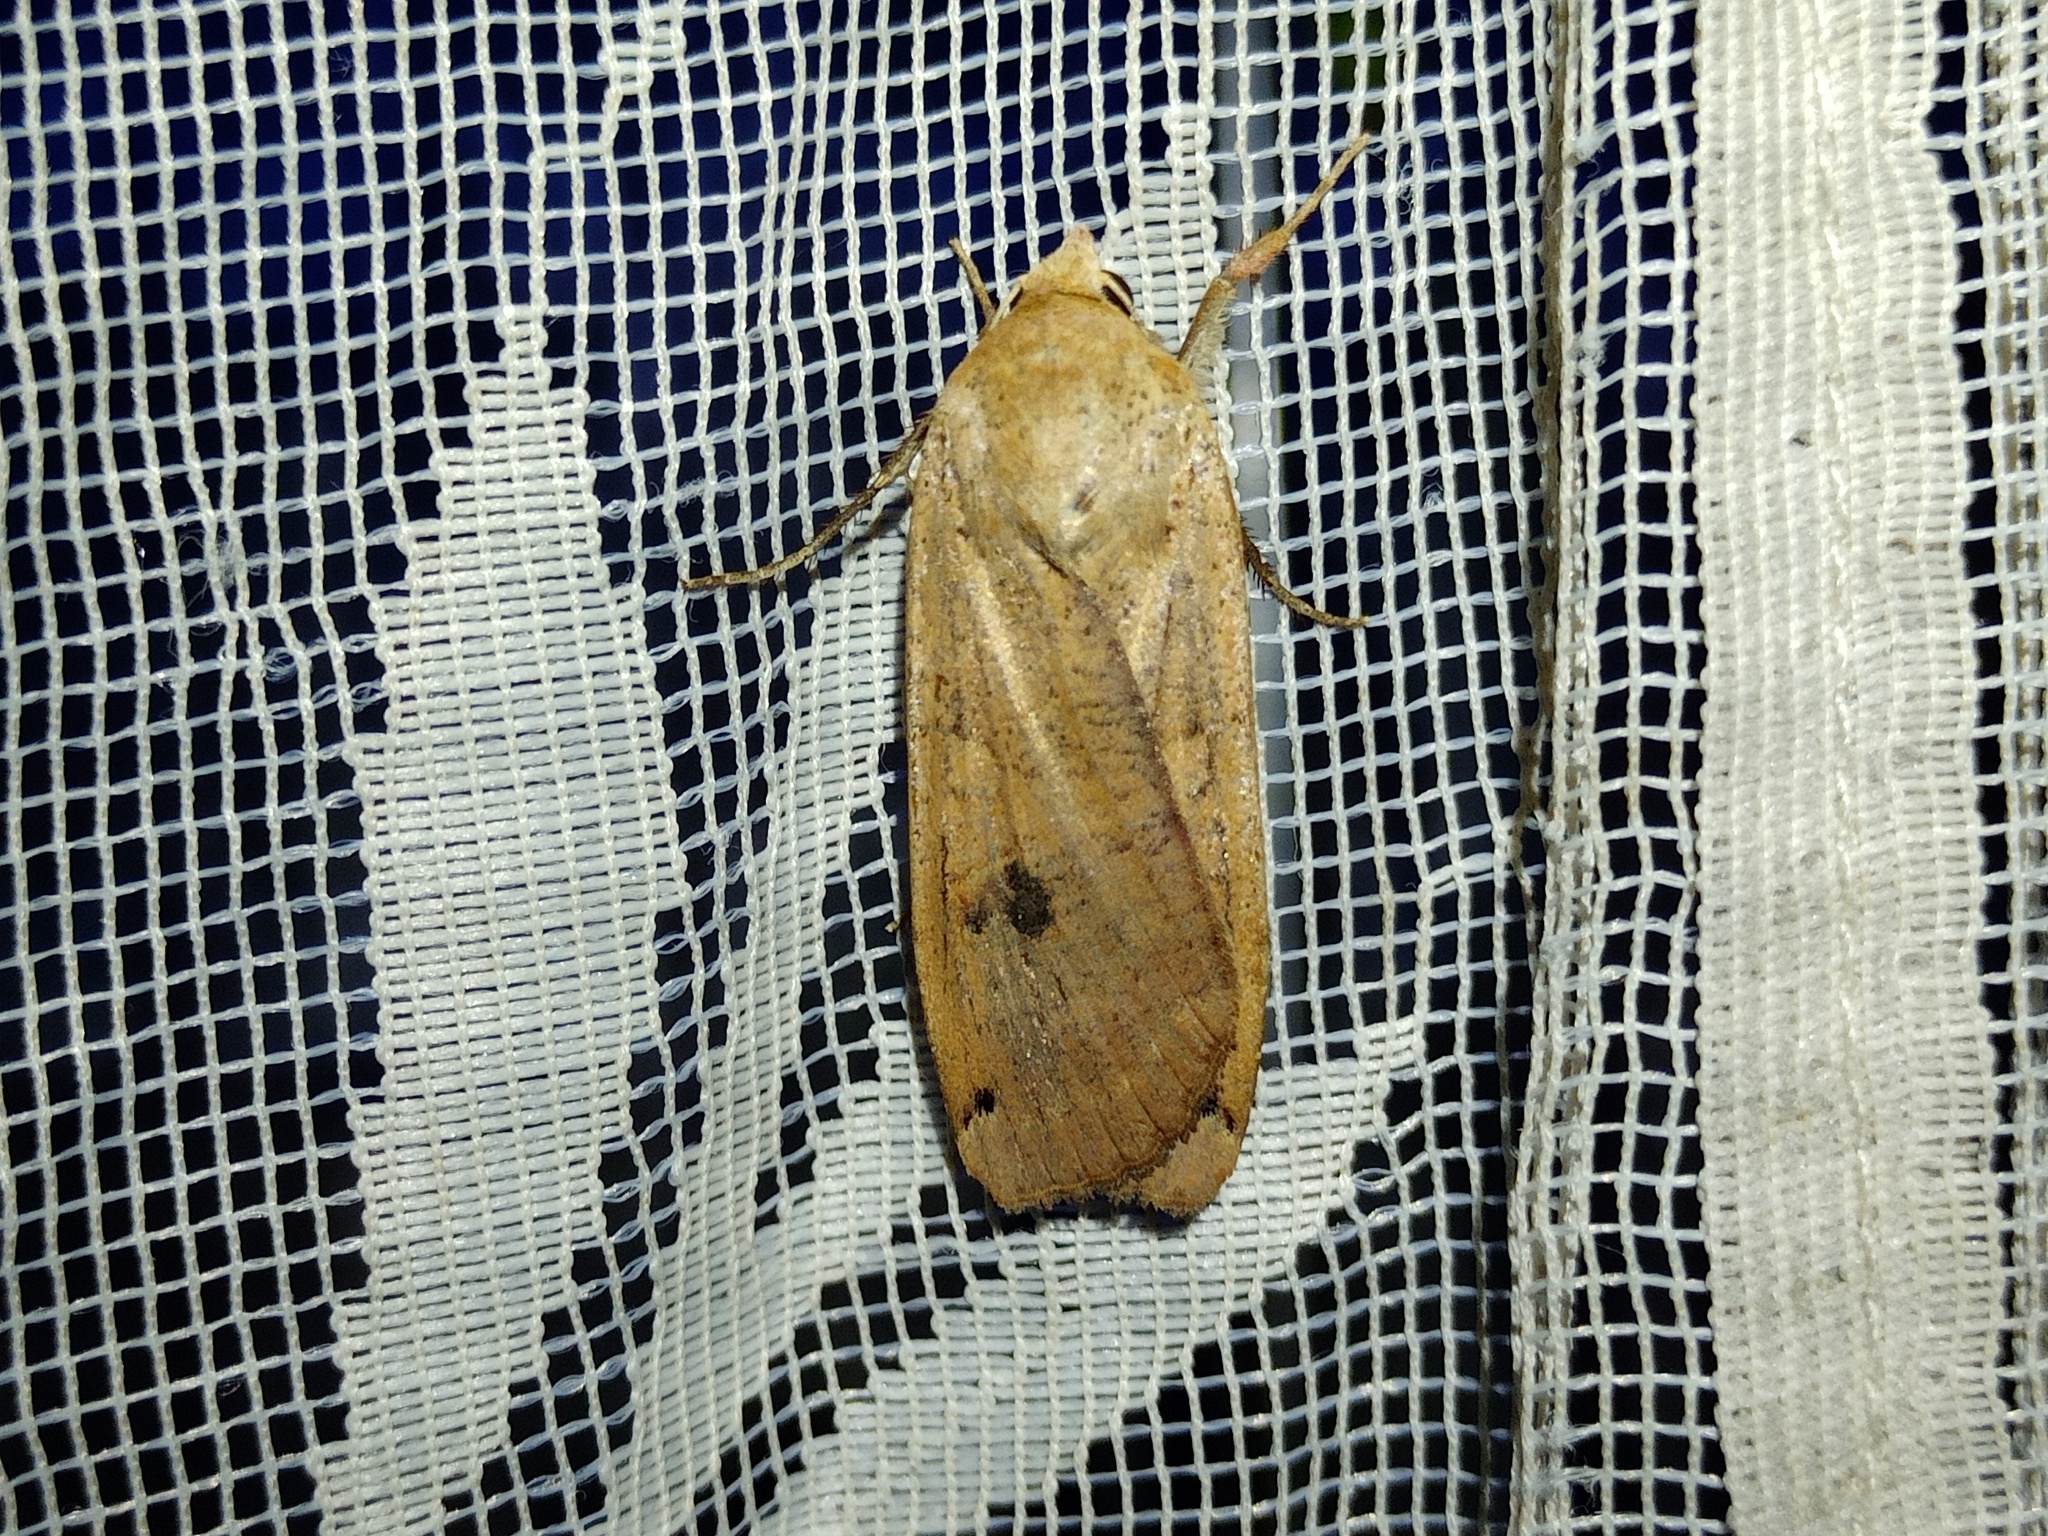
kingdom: Animalia
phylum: Arthropoda
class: Insecta
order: Lepidoptera
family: Noctuidae
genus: Noctua
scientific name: Noctua pronuba
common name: Large yellow underwing
